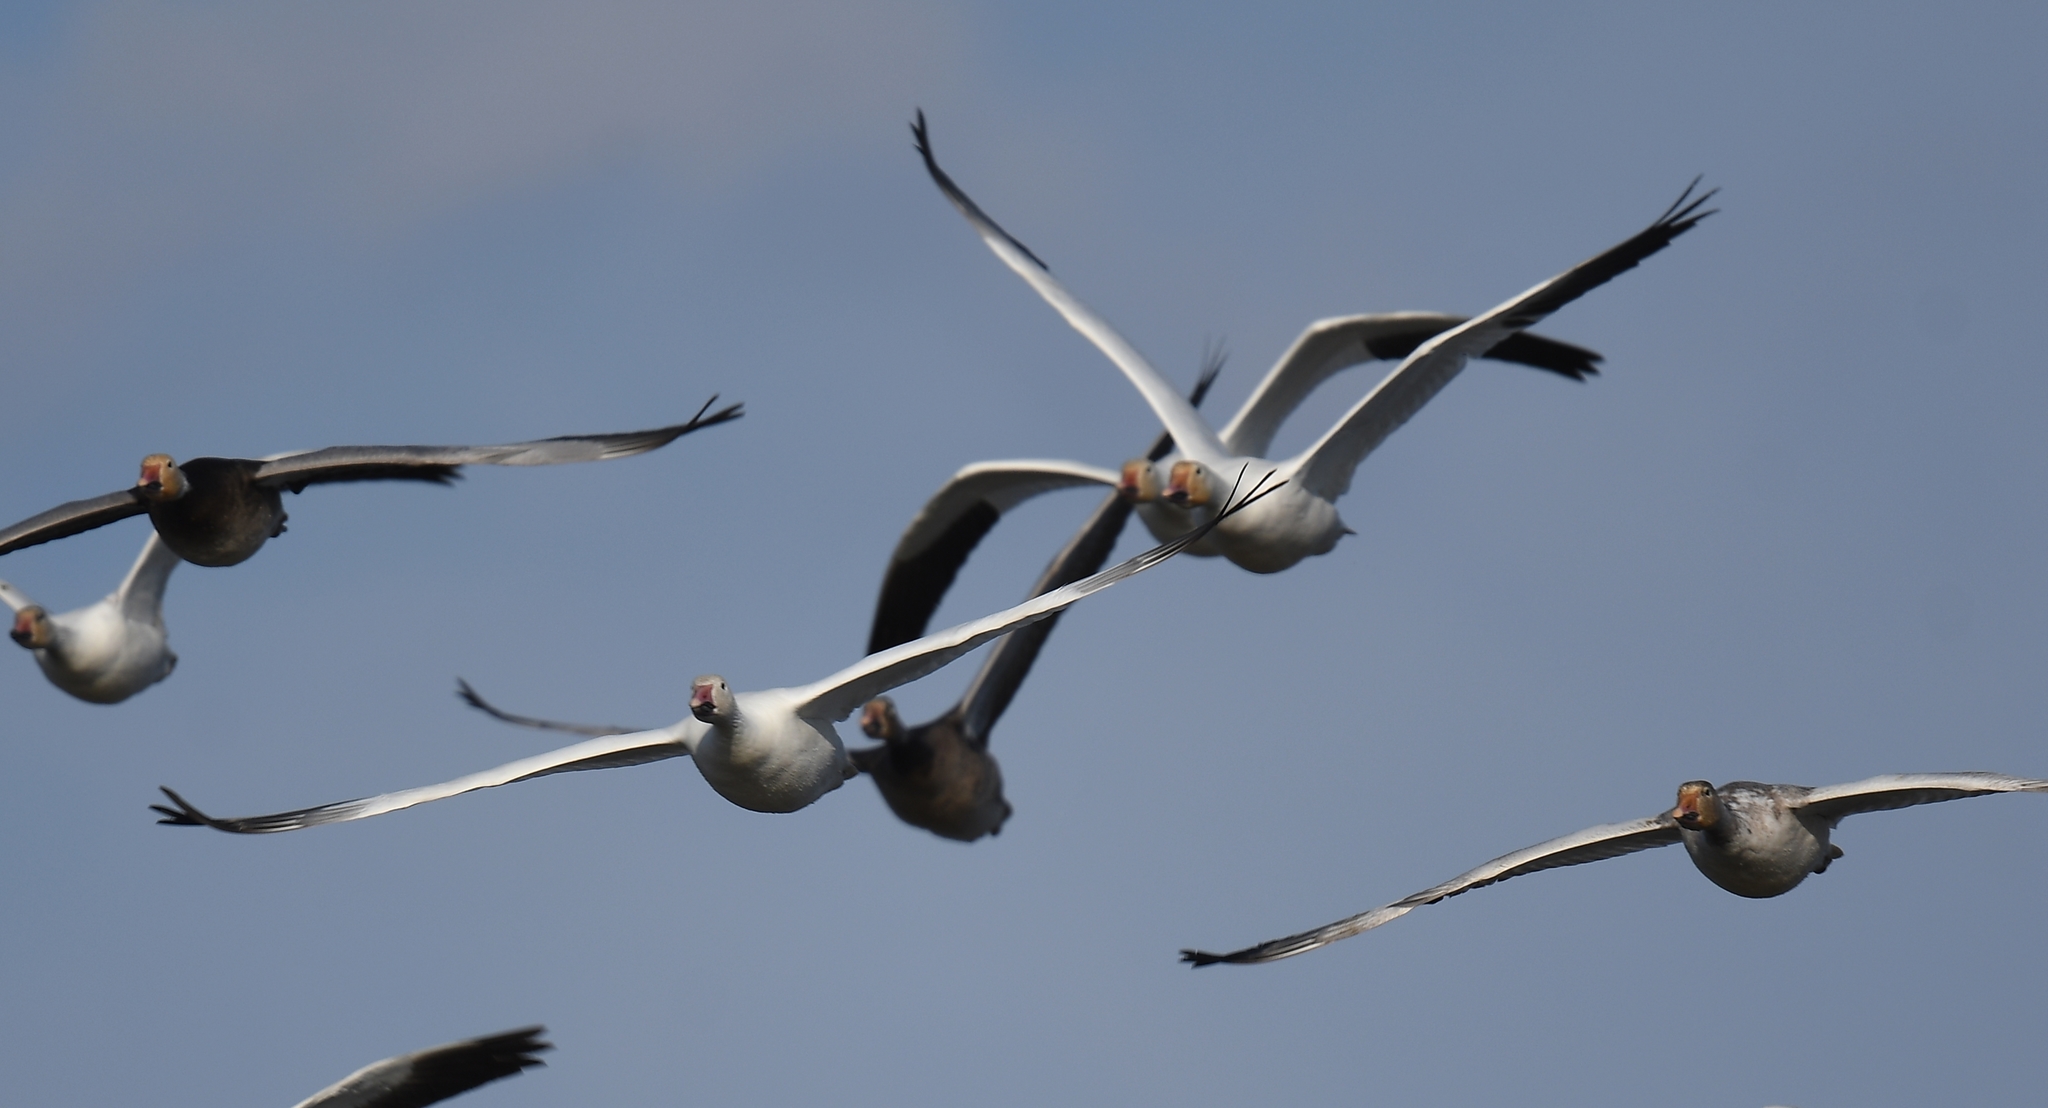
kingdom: Animalia
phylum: Chordata
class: Aves
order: Anseriformes
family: Anatidae
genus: Anser
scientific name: Anser caerulescens
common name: Snow goose
